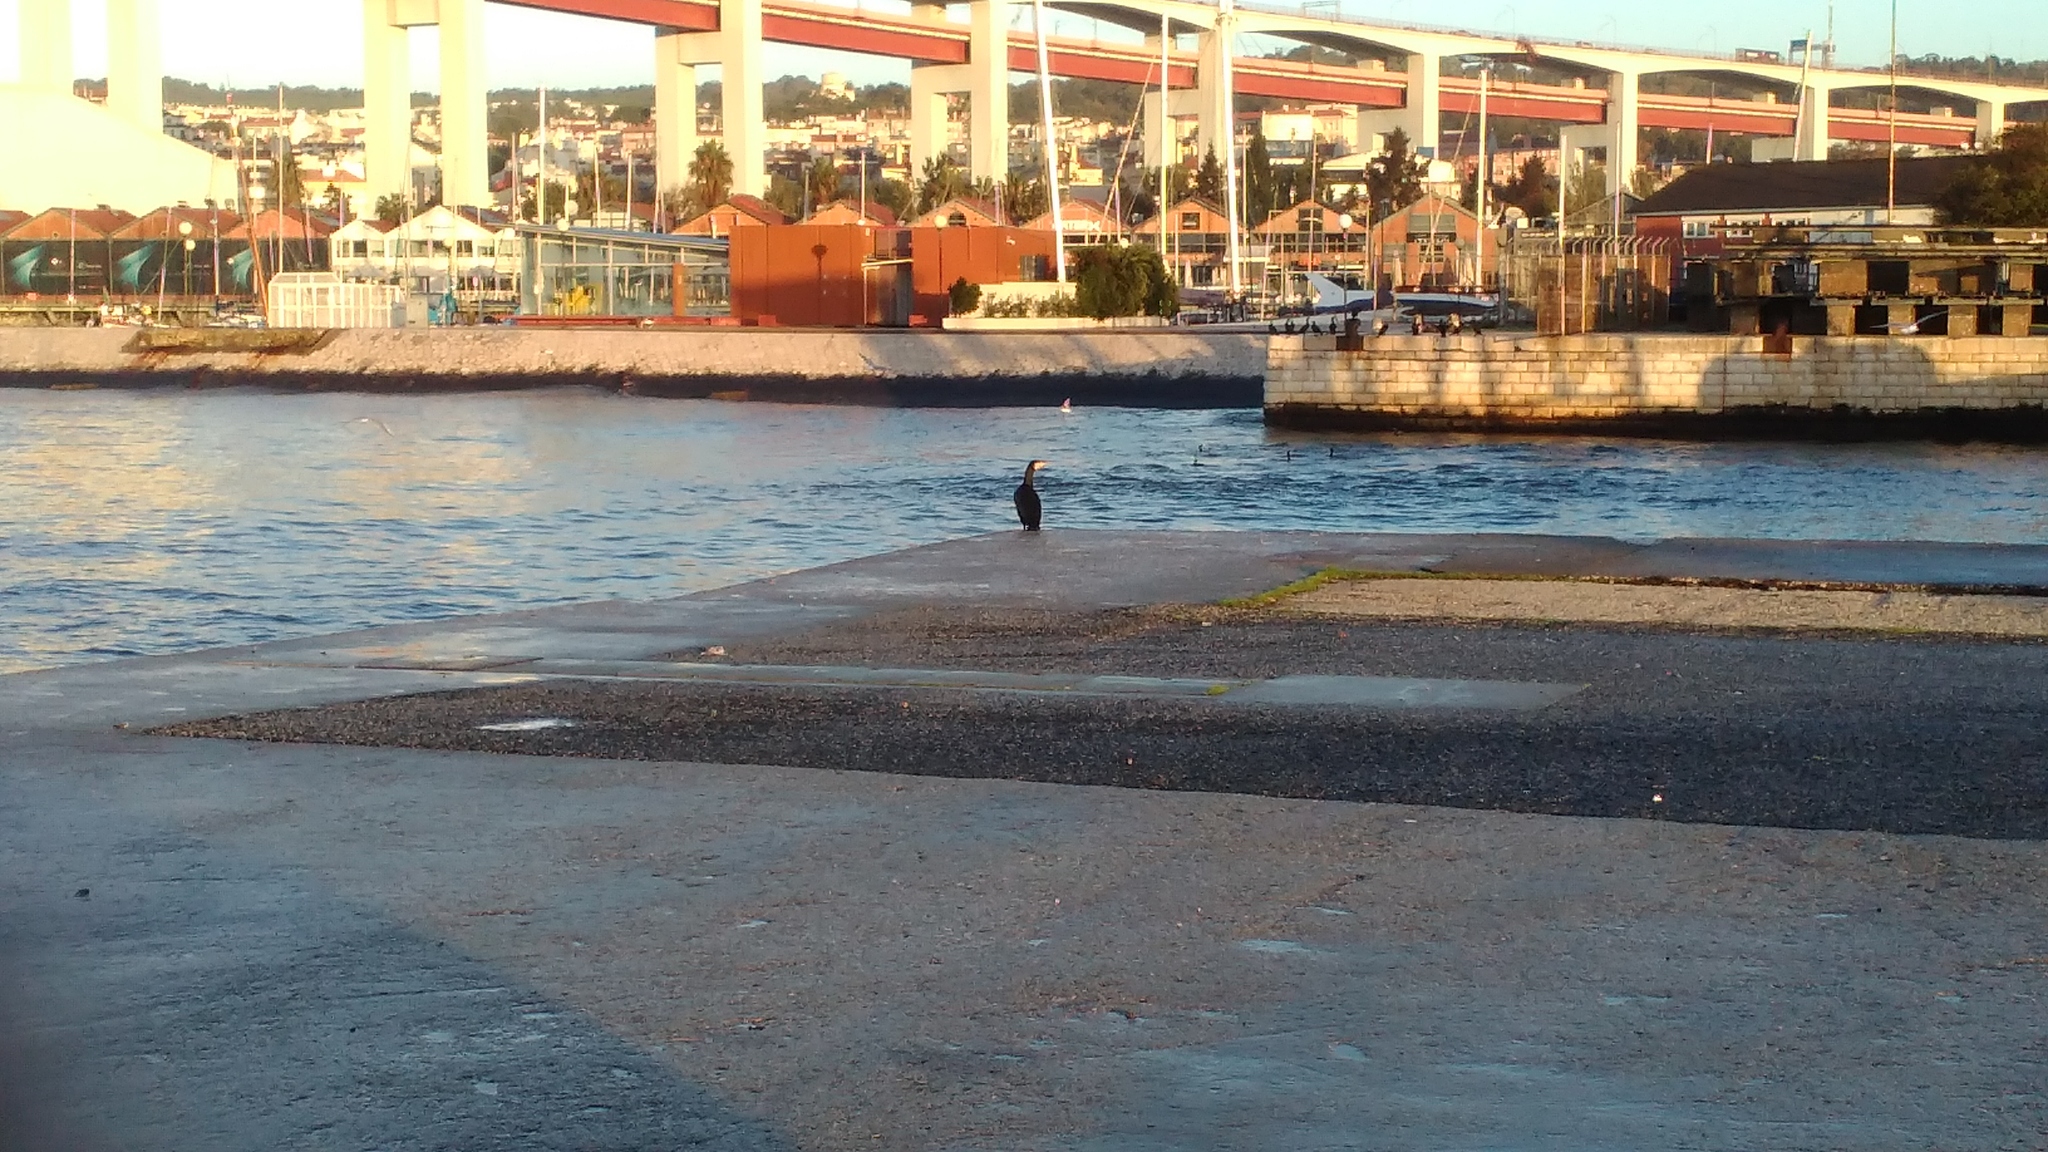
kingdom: Animalia
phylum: Chordata
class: Aves
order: Suliformes
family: Phalacrocoracidae
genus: Phalacrocorax
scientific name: Phalacrocorax carbo
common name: Great cormorant
